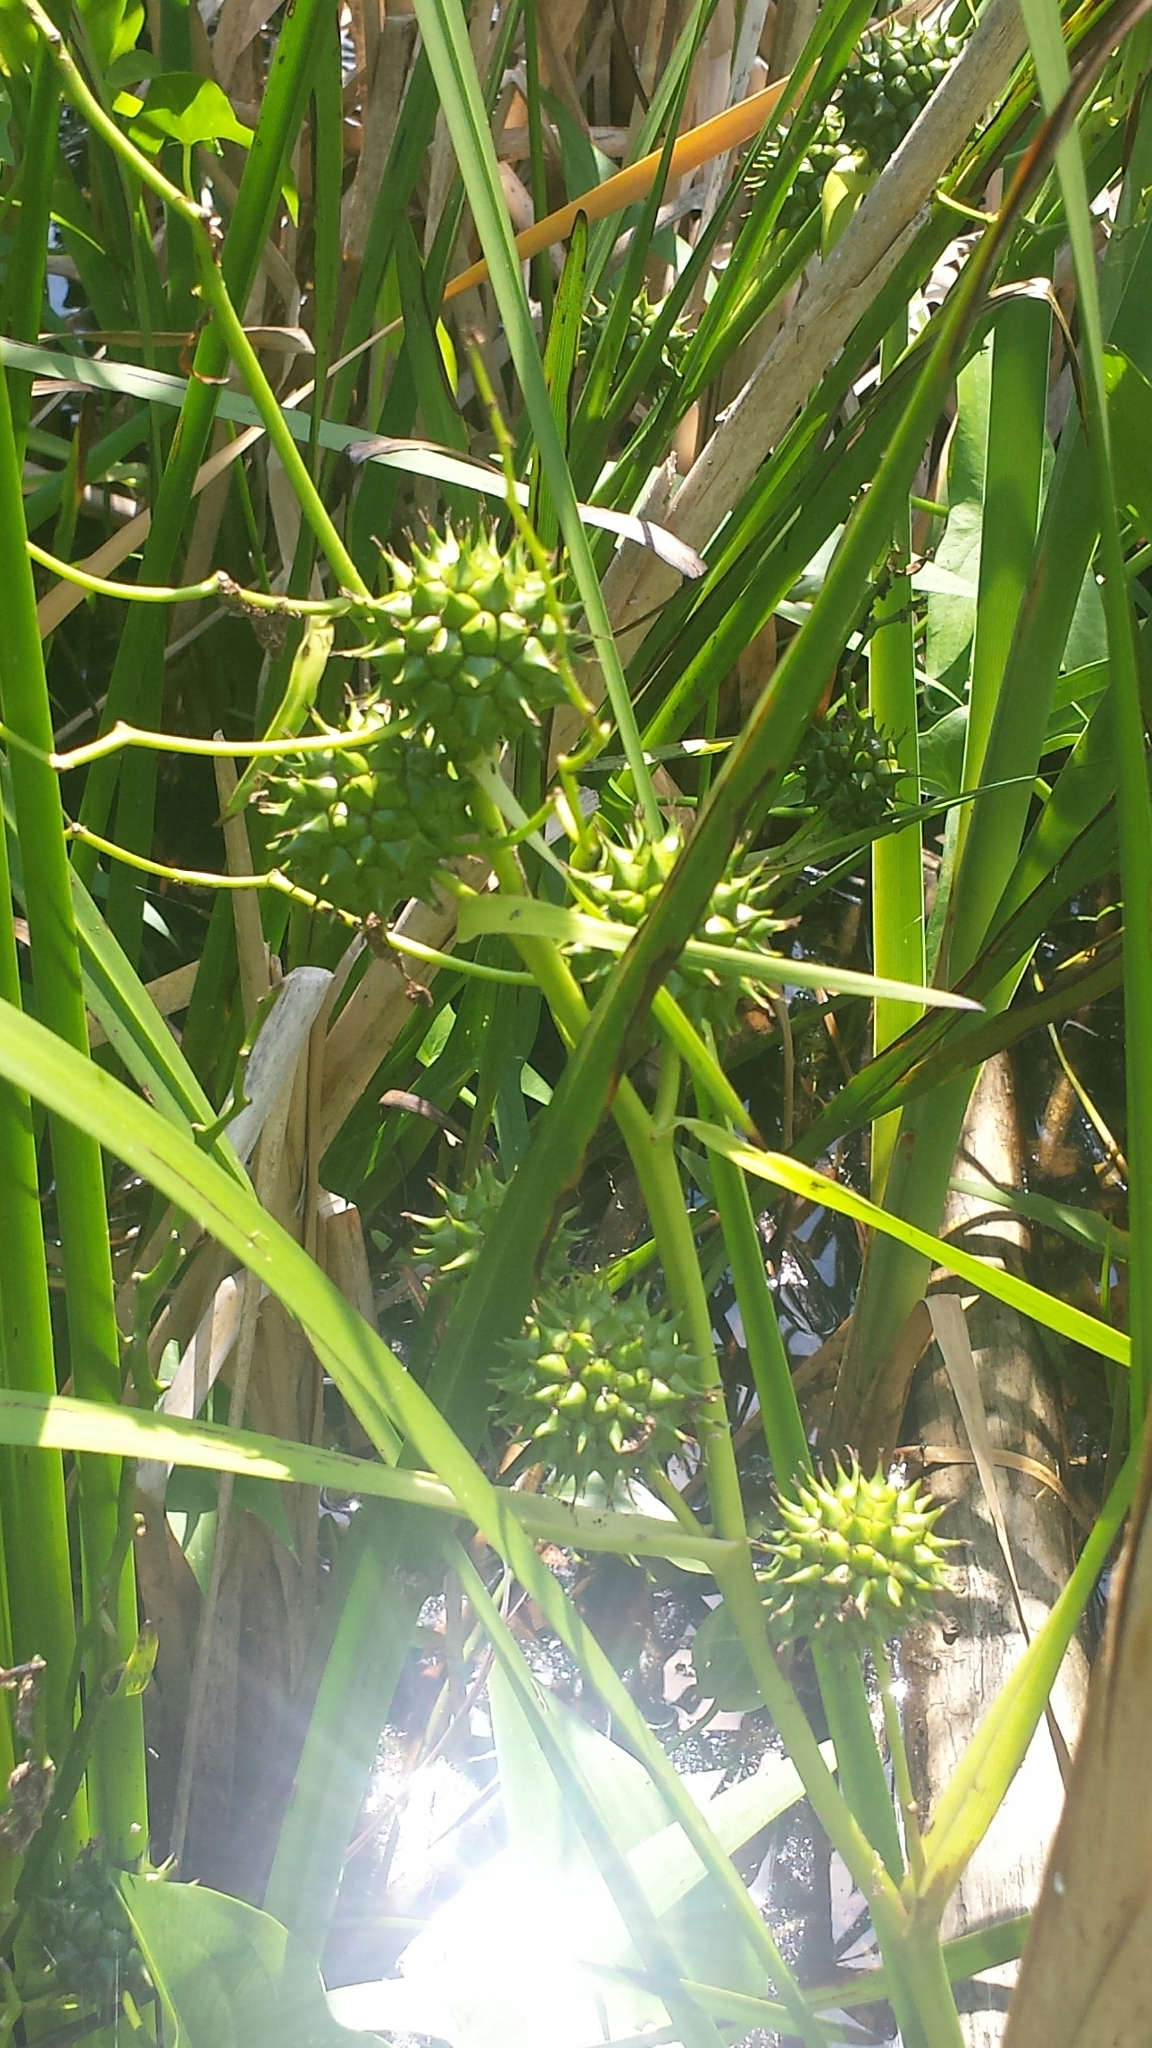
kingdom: Plantae
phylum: Tracheophyta
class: Liliopsida
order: Poales
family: Typhaceae
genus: Sparganium
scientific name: Sparganium eurycarpum
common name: Broad-fruited burreed
